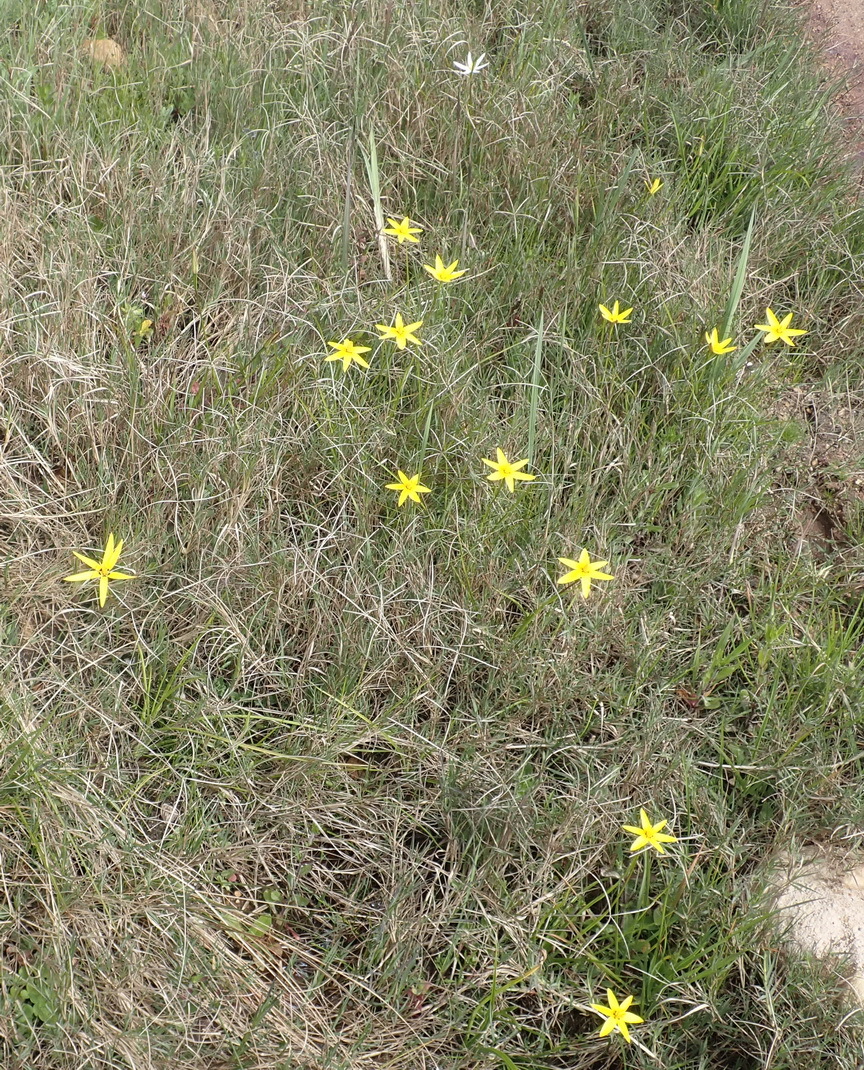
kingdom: Plantae
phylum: Tracheophyta
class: Liliopsida
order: Asparagales
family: Hypoxidaceae
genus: Pauridia
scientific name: Pauridia capensis
